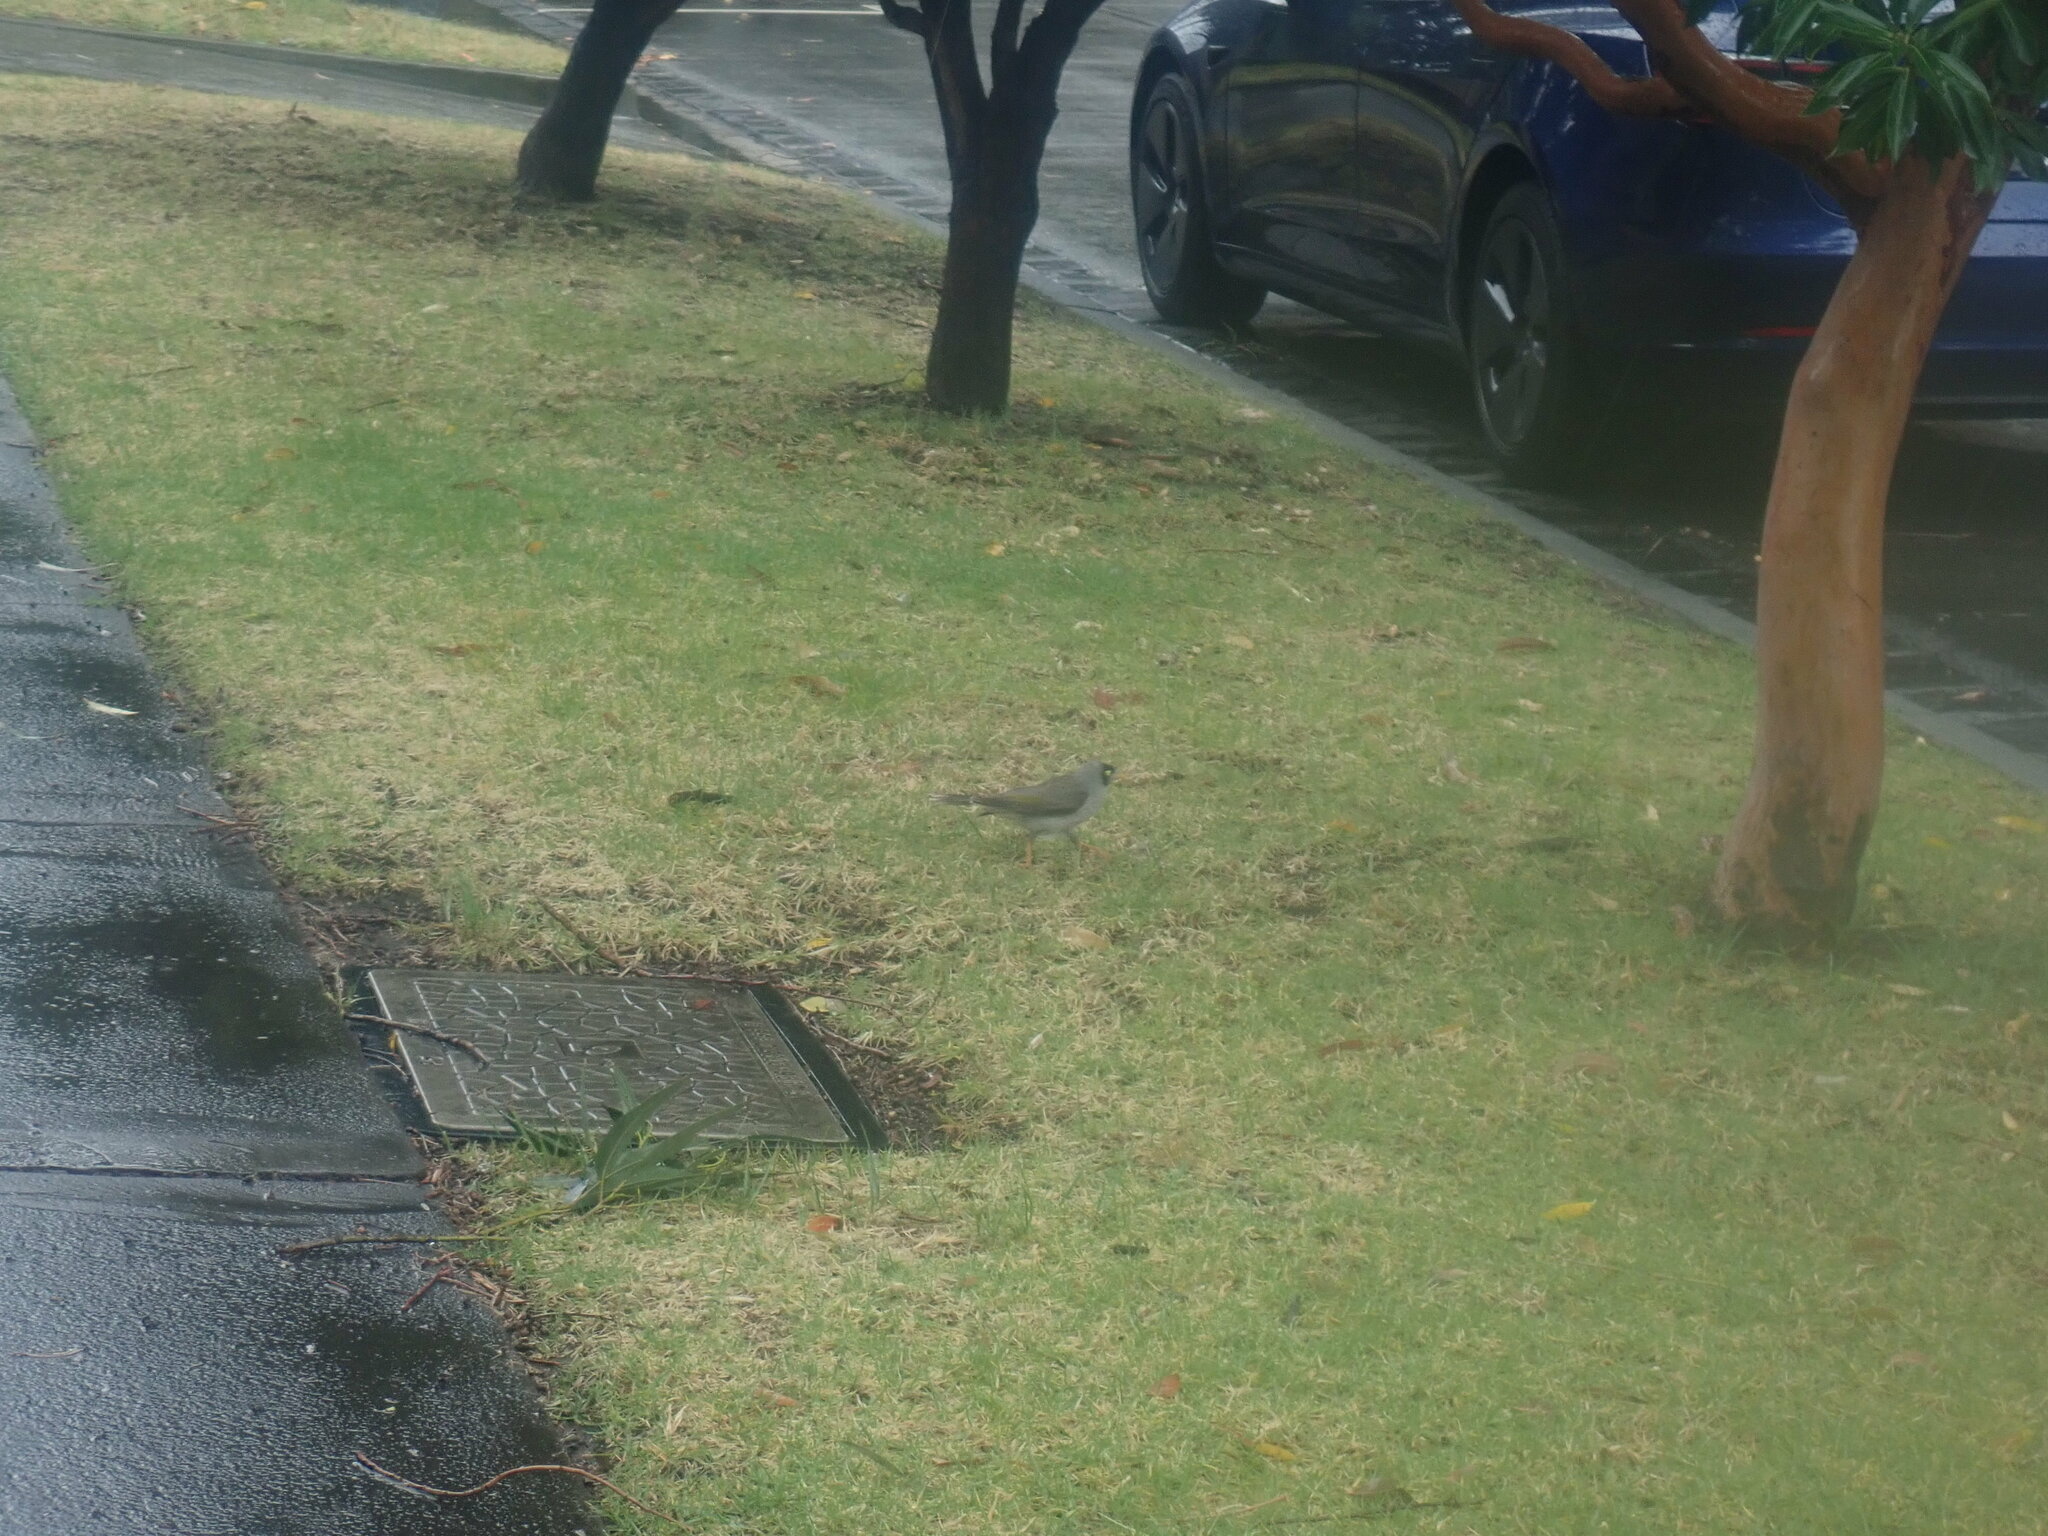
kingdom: Animalia
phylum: Chordata
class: Aves
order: Passeriformes
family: Meliphagidae
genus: Manorina
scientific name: Manorina melanocephala
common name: Noisy miner
